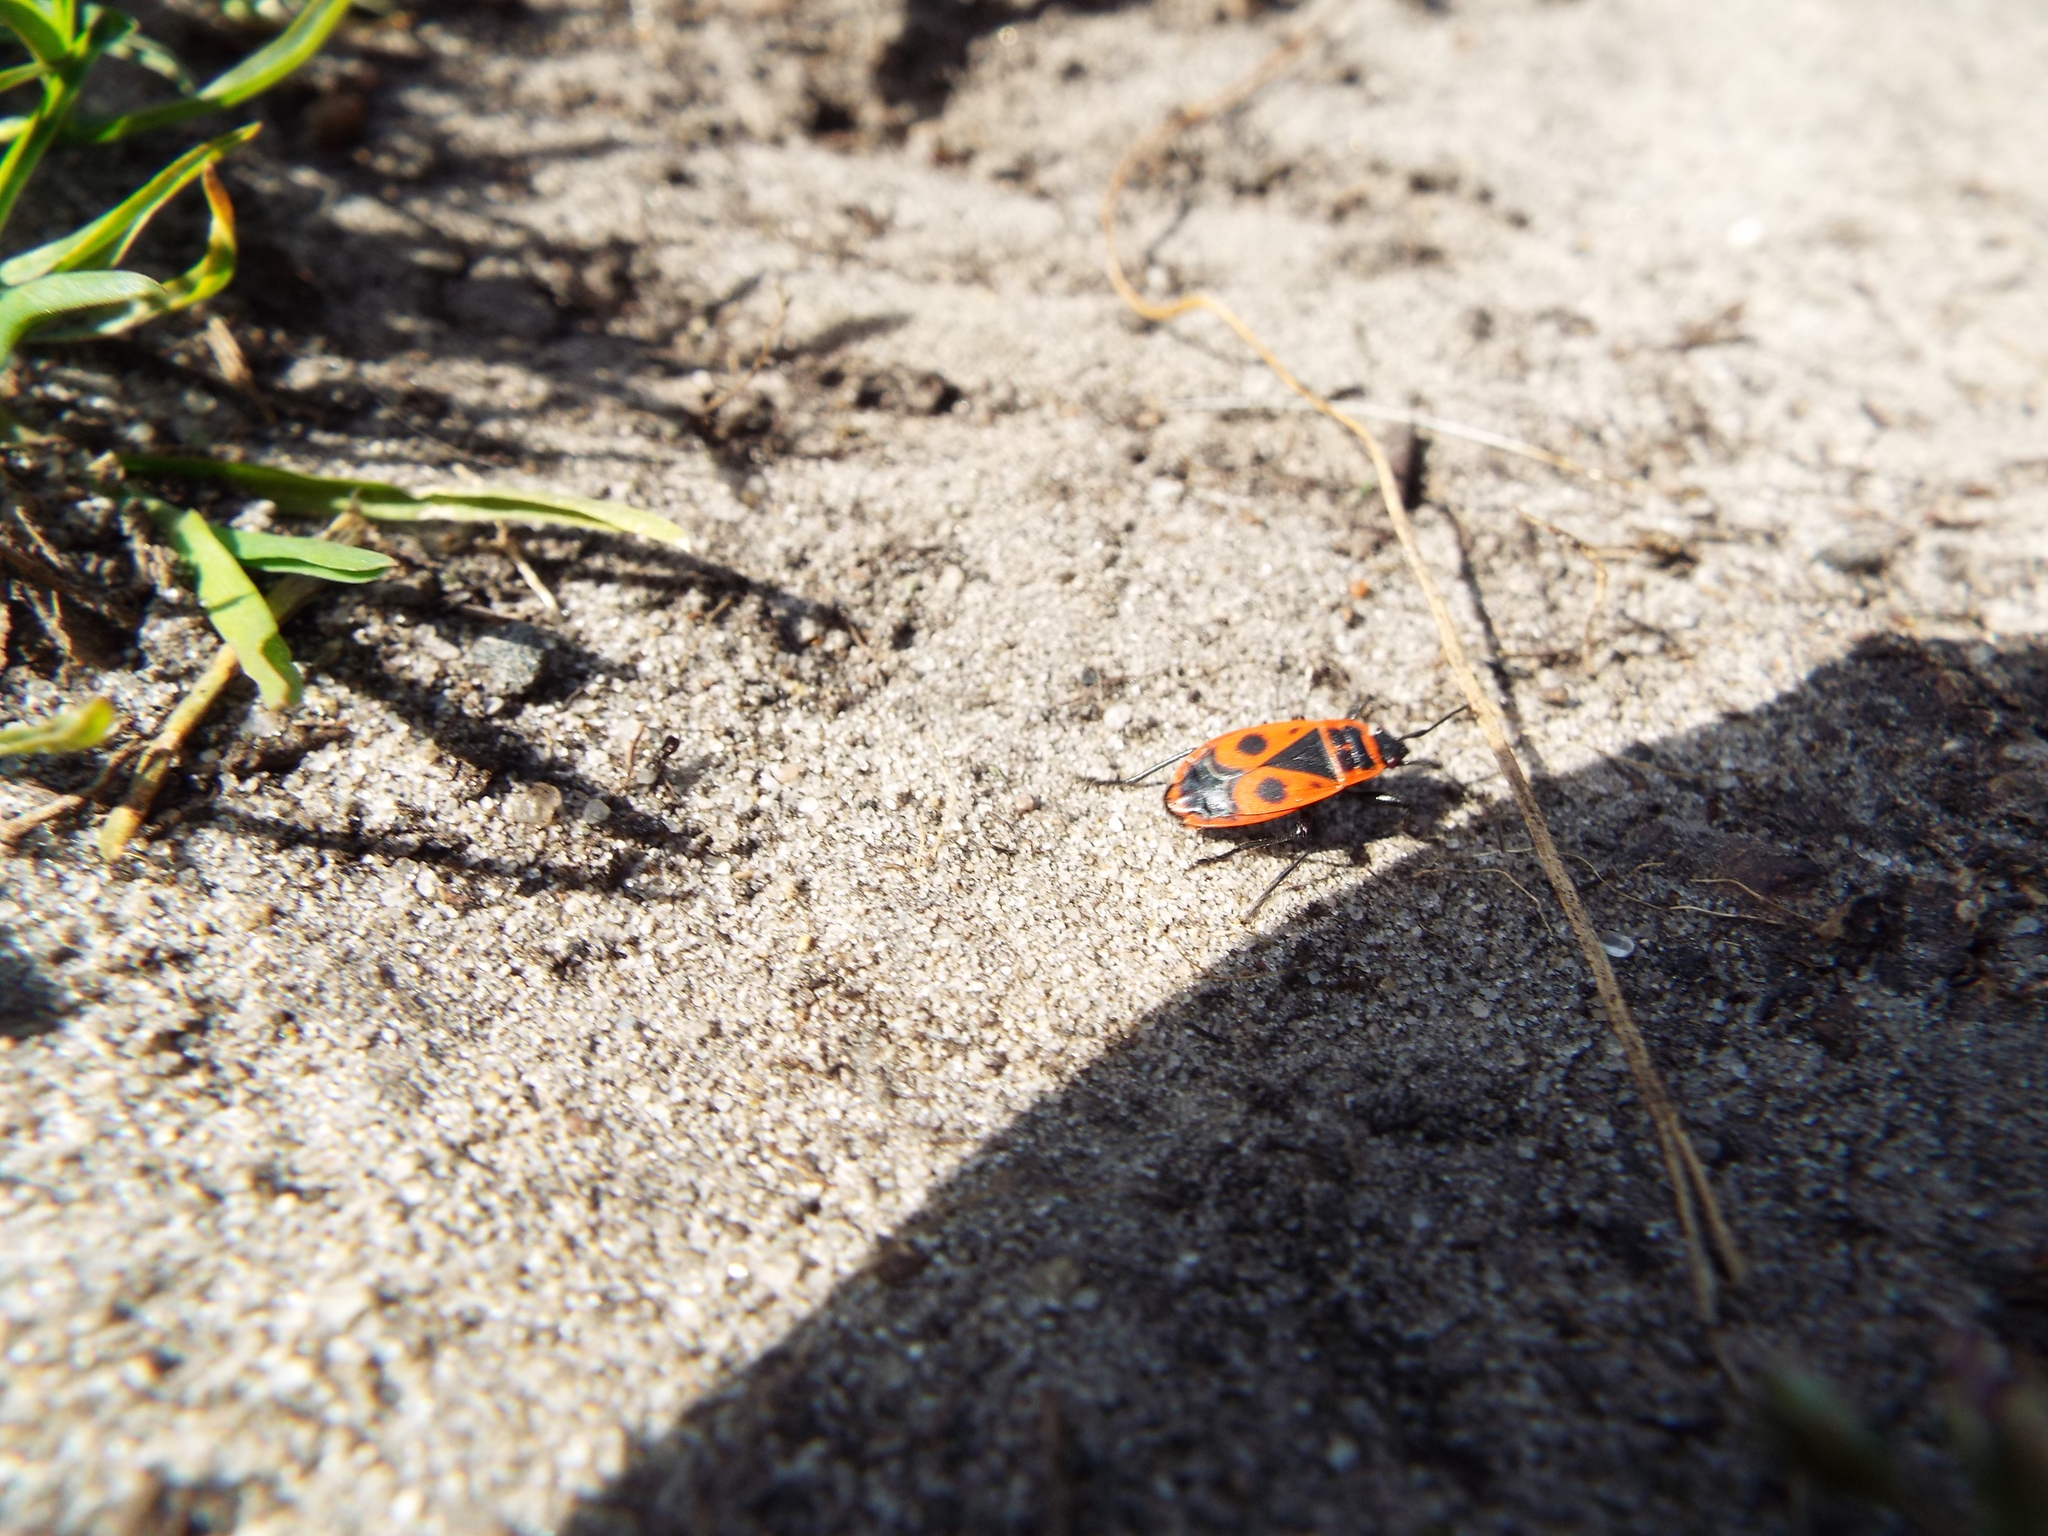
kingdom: Animalia
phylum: Arthropoda
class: Insecta
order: Hemiptera
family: Pyrrhocoridae
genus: Pyrrhocoris
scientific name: Pyrrhocoris apterus
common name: Firebug
